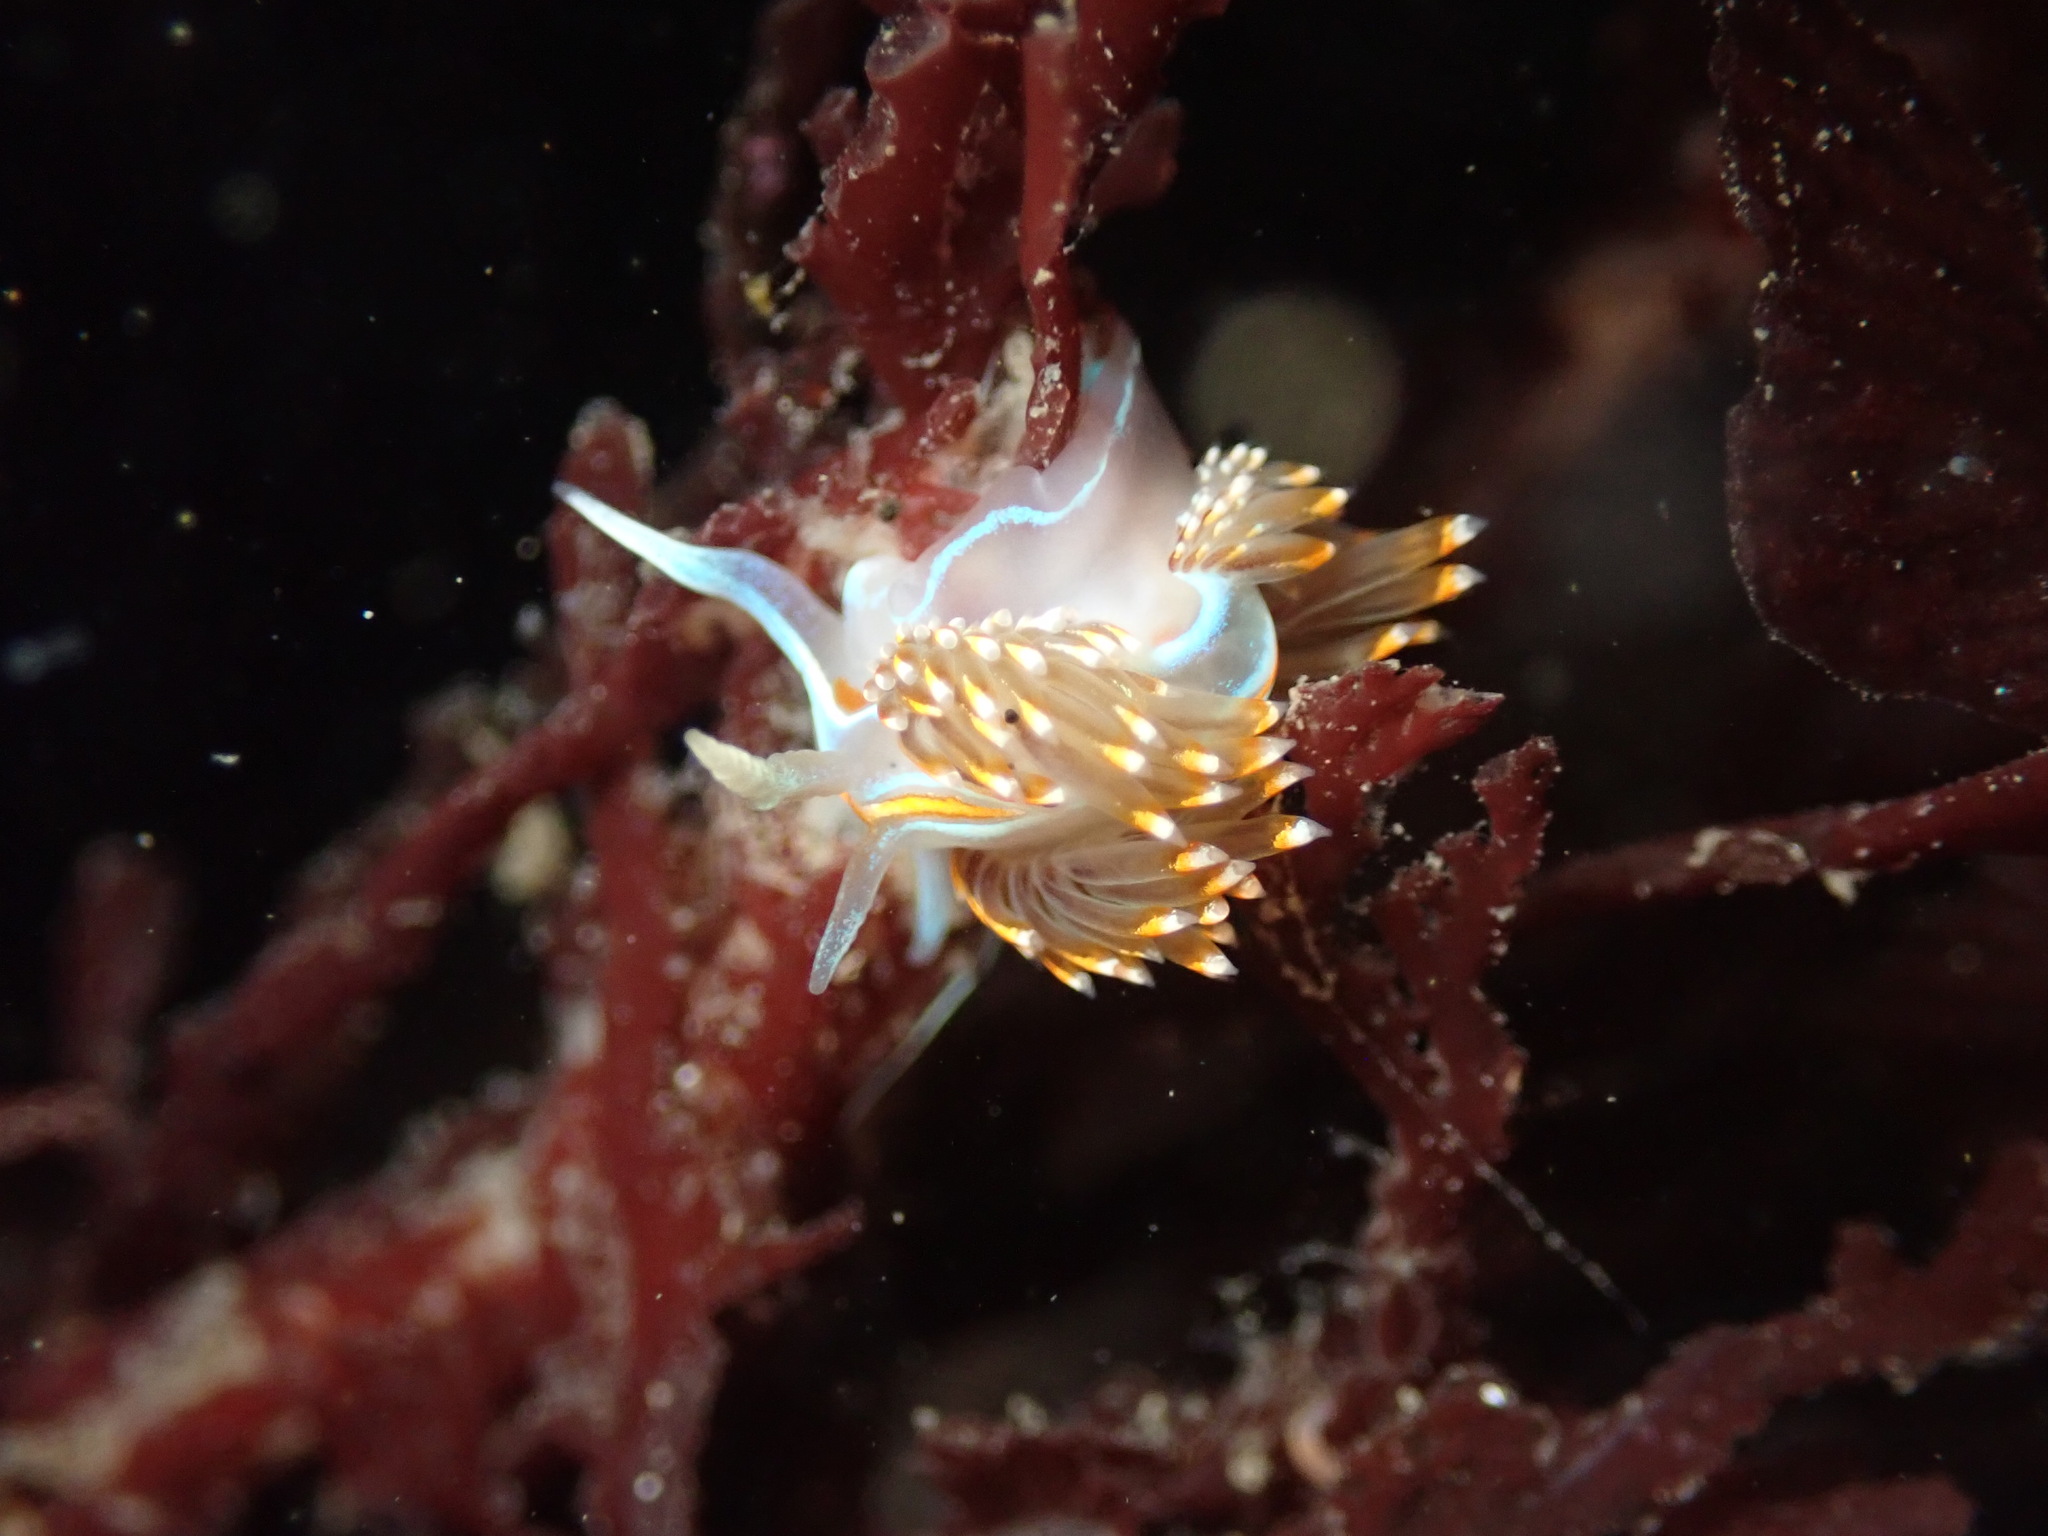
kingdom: Animalia
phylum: Mollusca
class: Gastropoda
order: Nudibranchia
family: Myrrhinidae
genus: Hermissenda
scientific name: Hermissenda opalescens
